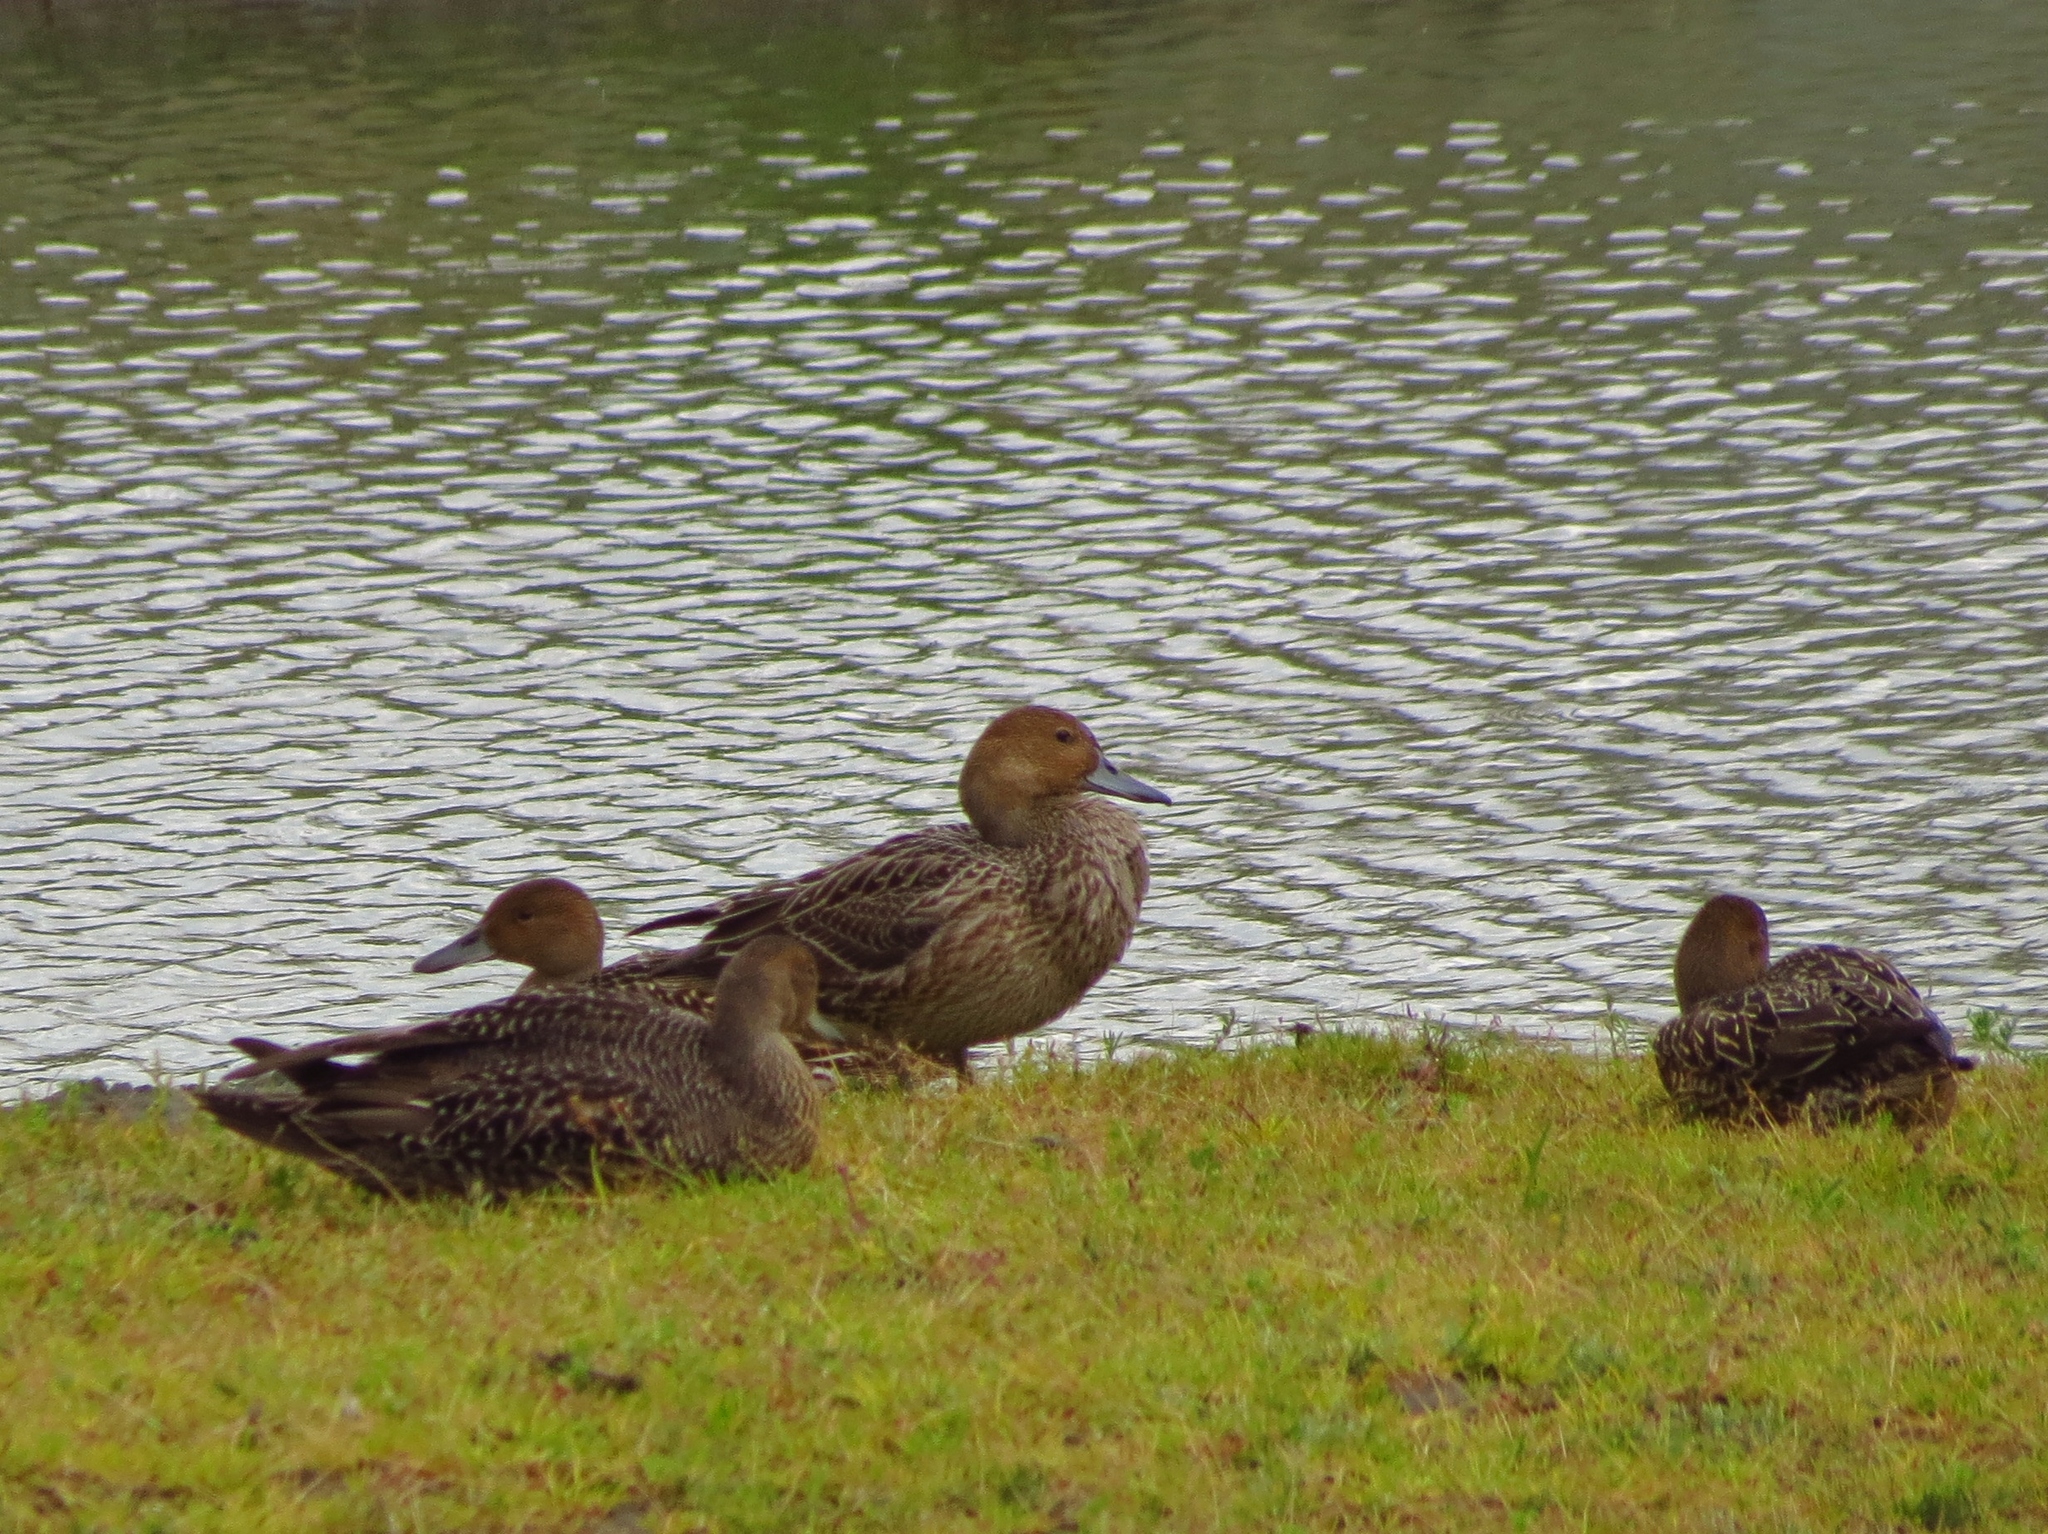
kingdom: Animalia
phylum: Chordata
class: Aves
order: Anseriformes
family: Anatidae
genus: Anas
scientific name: Anas acuta
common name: Northern pintail
